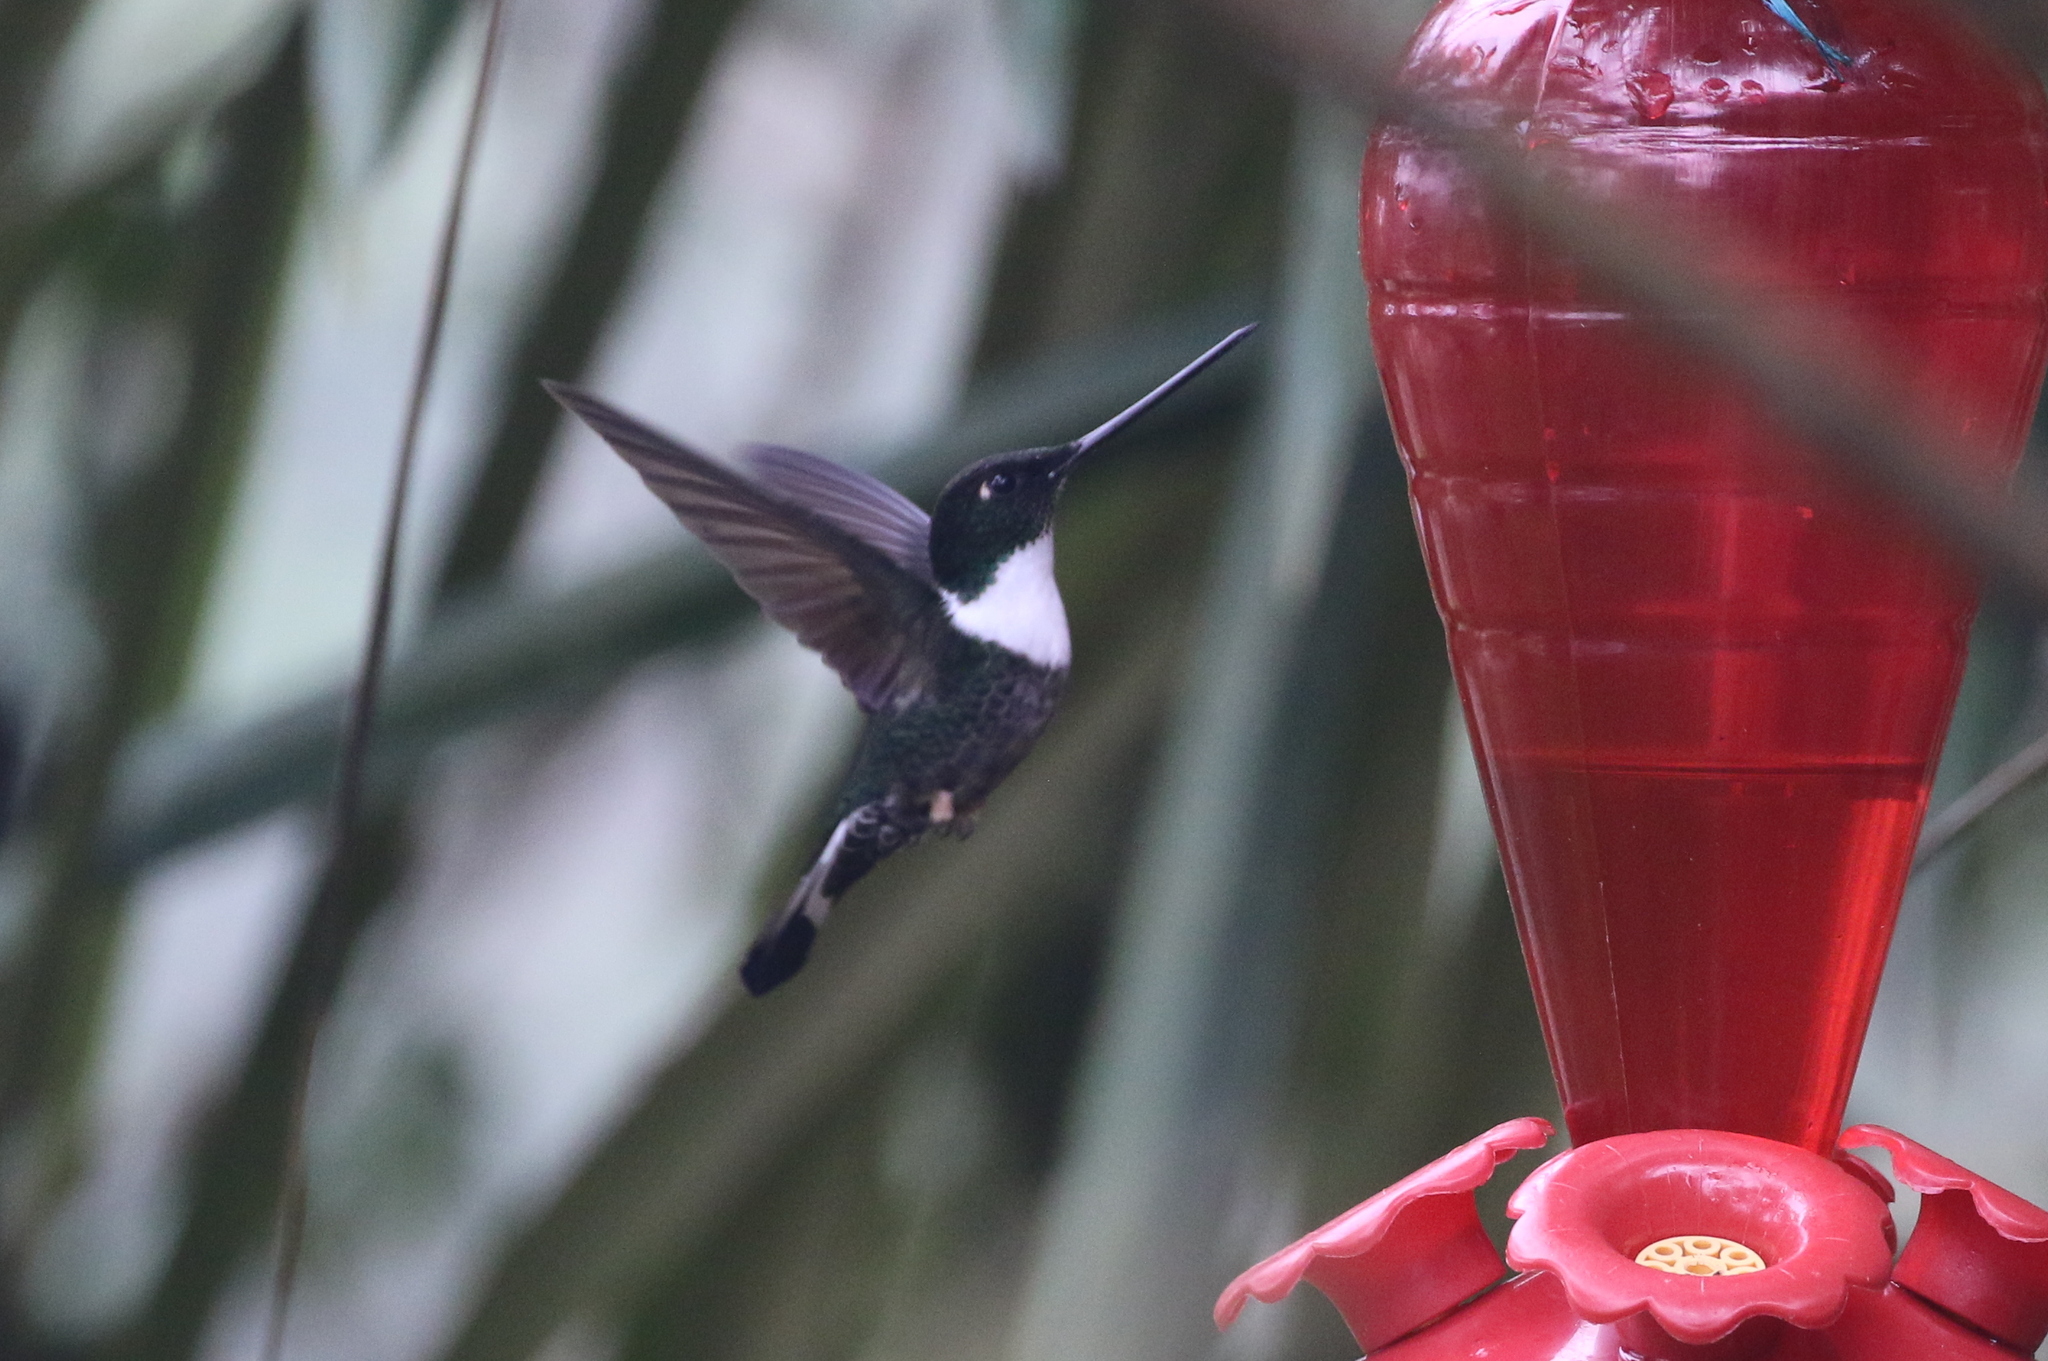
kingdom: Animalia
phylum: Chordata
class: Aves
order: Apodiformes
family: Trochilidae
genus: Coeligena
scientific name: Coeligena torquata
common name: Collared inca
